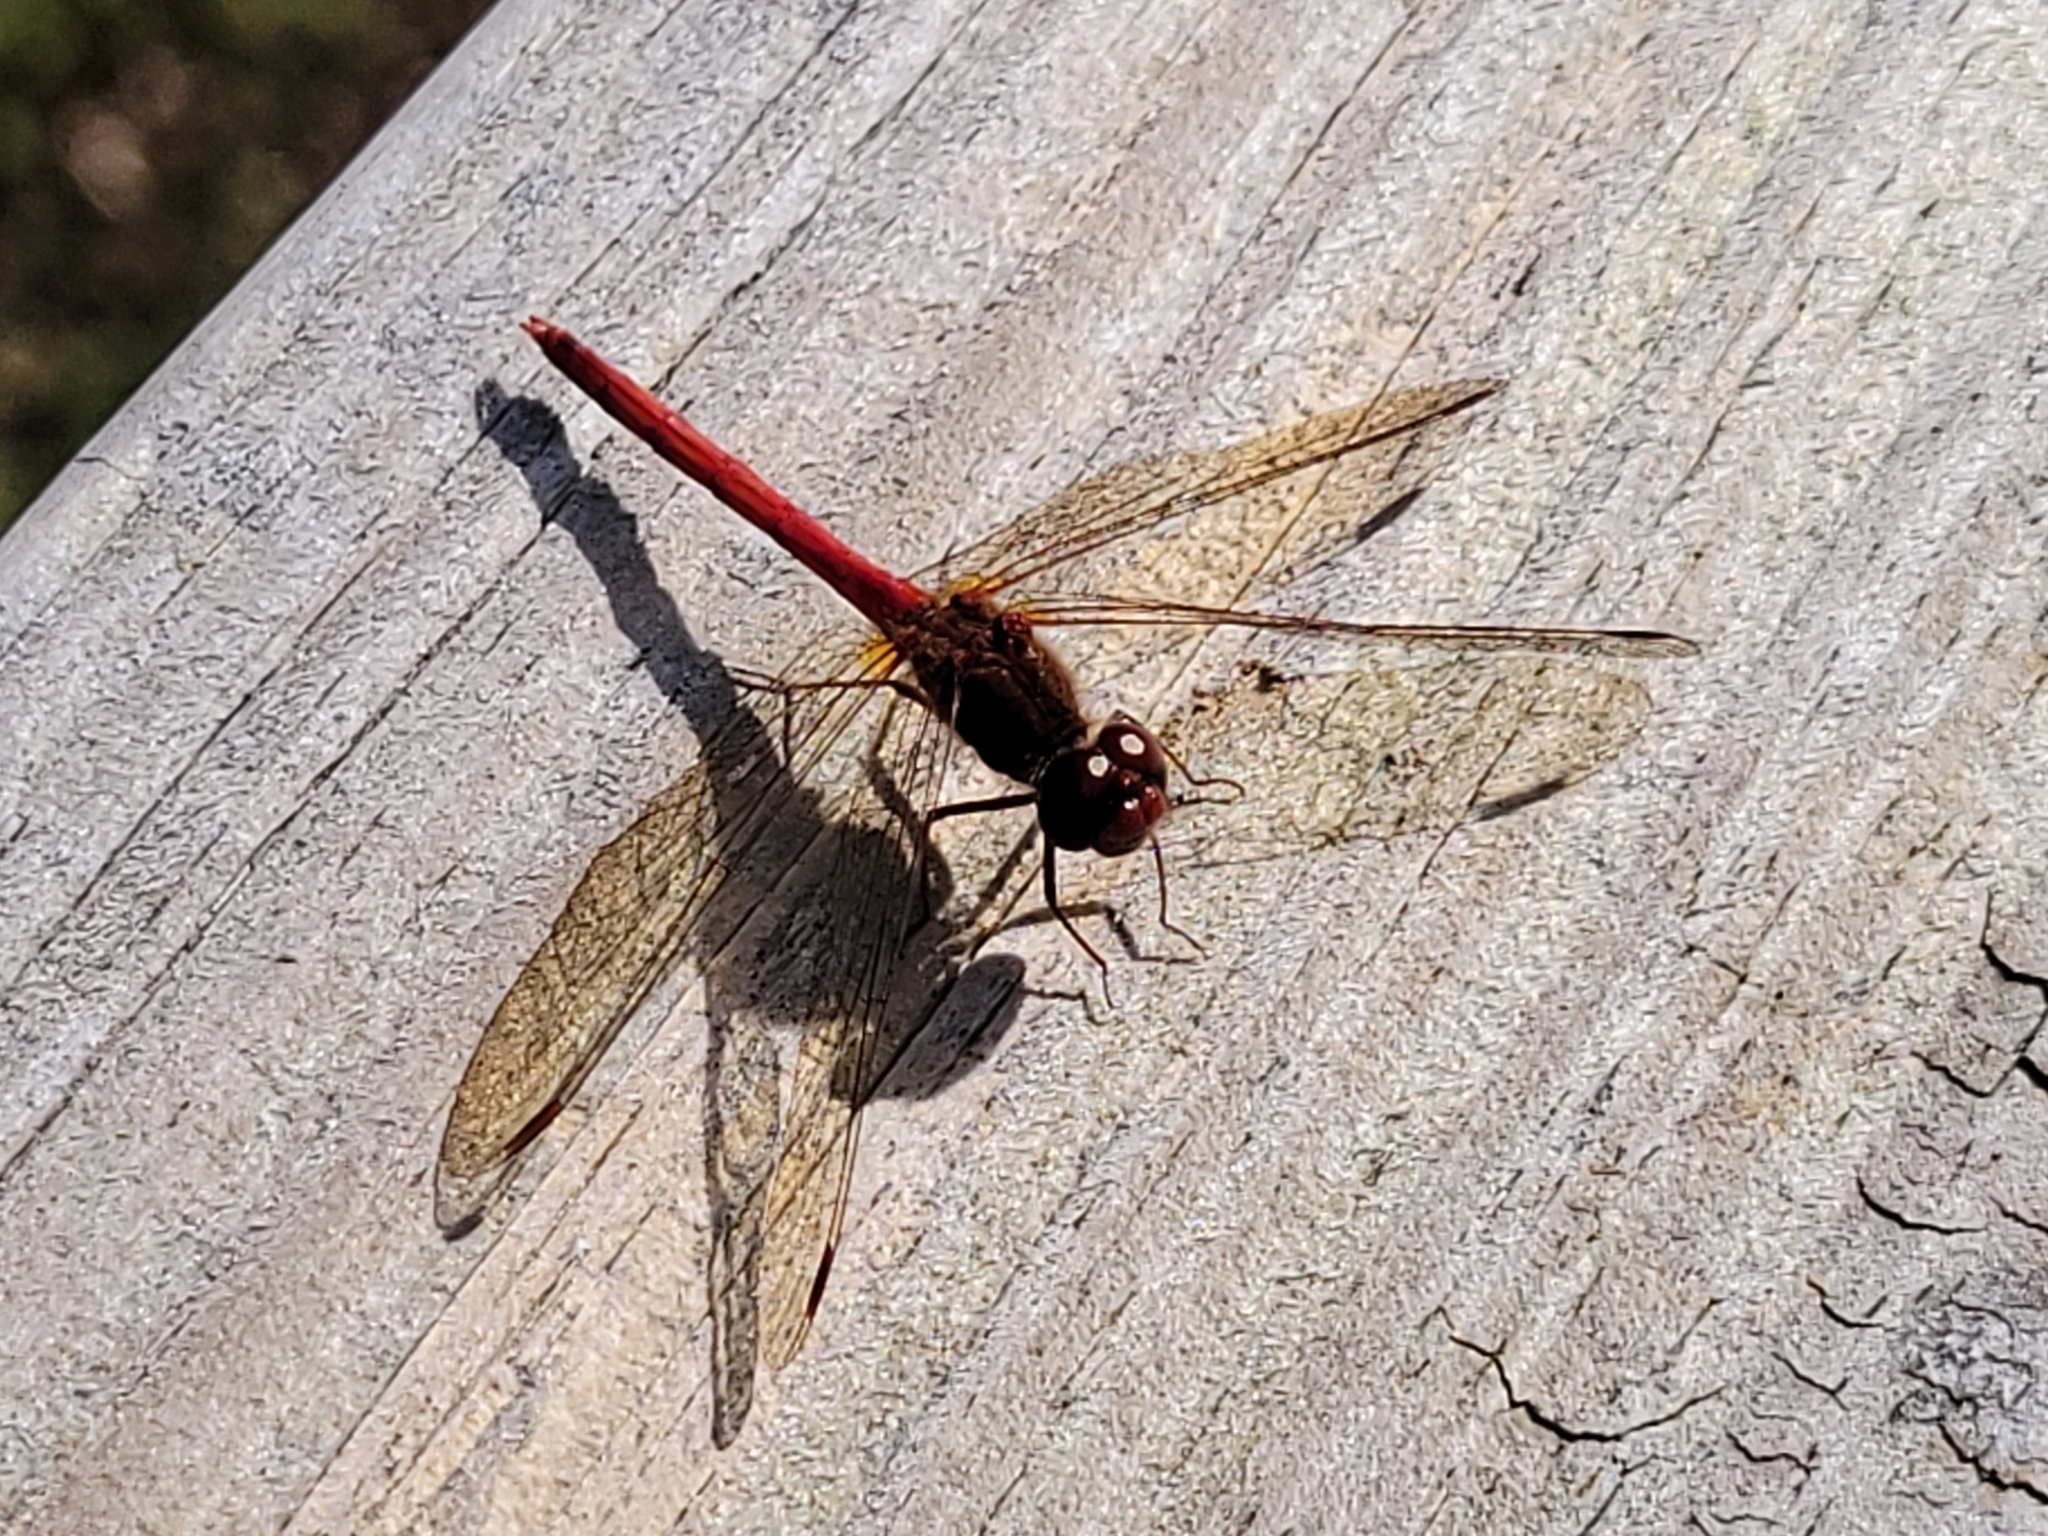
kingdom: Animalia
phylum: Arthropoda
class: Insecta
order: Odonata
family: Libellulidae
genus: Sympetrum
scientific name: Sympetrum vicinum
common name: Autumn meadowhawk
